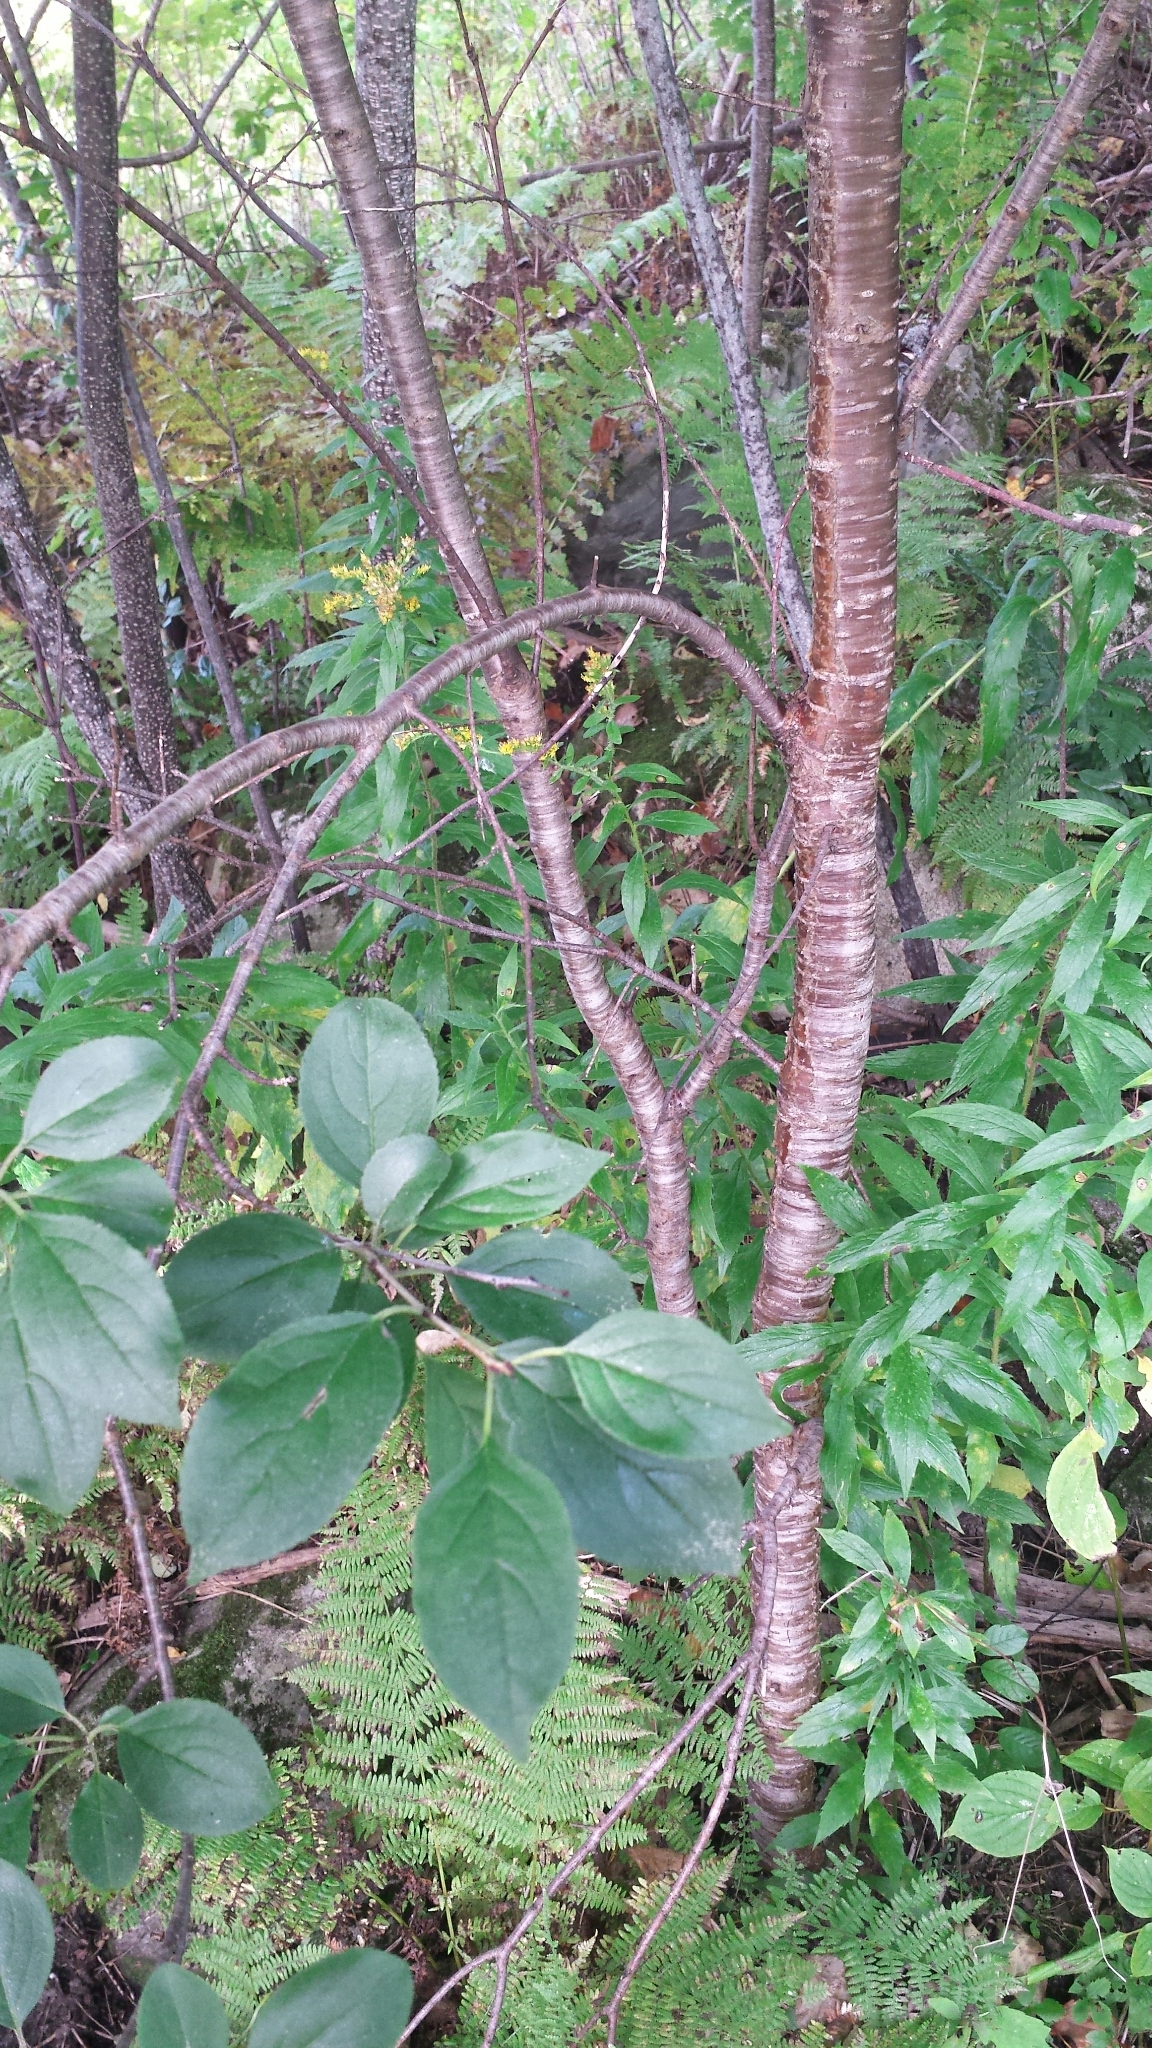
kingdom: Plantae
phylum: Tracheophyta
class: Magnoliopsida
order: Rosales
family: Rhamnaceae
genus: Rhamnus
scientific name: Rhamnus cathartica
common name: Common buckthorn
